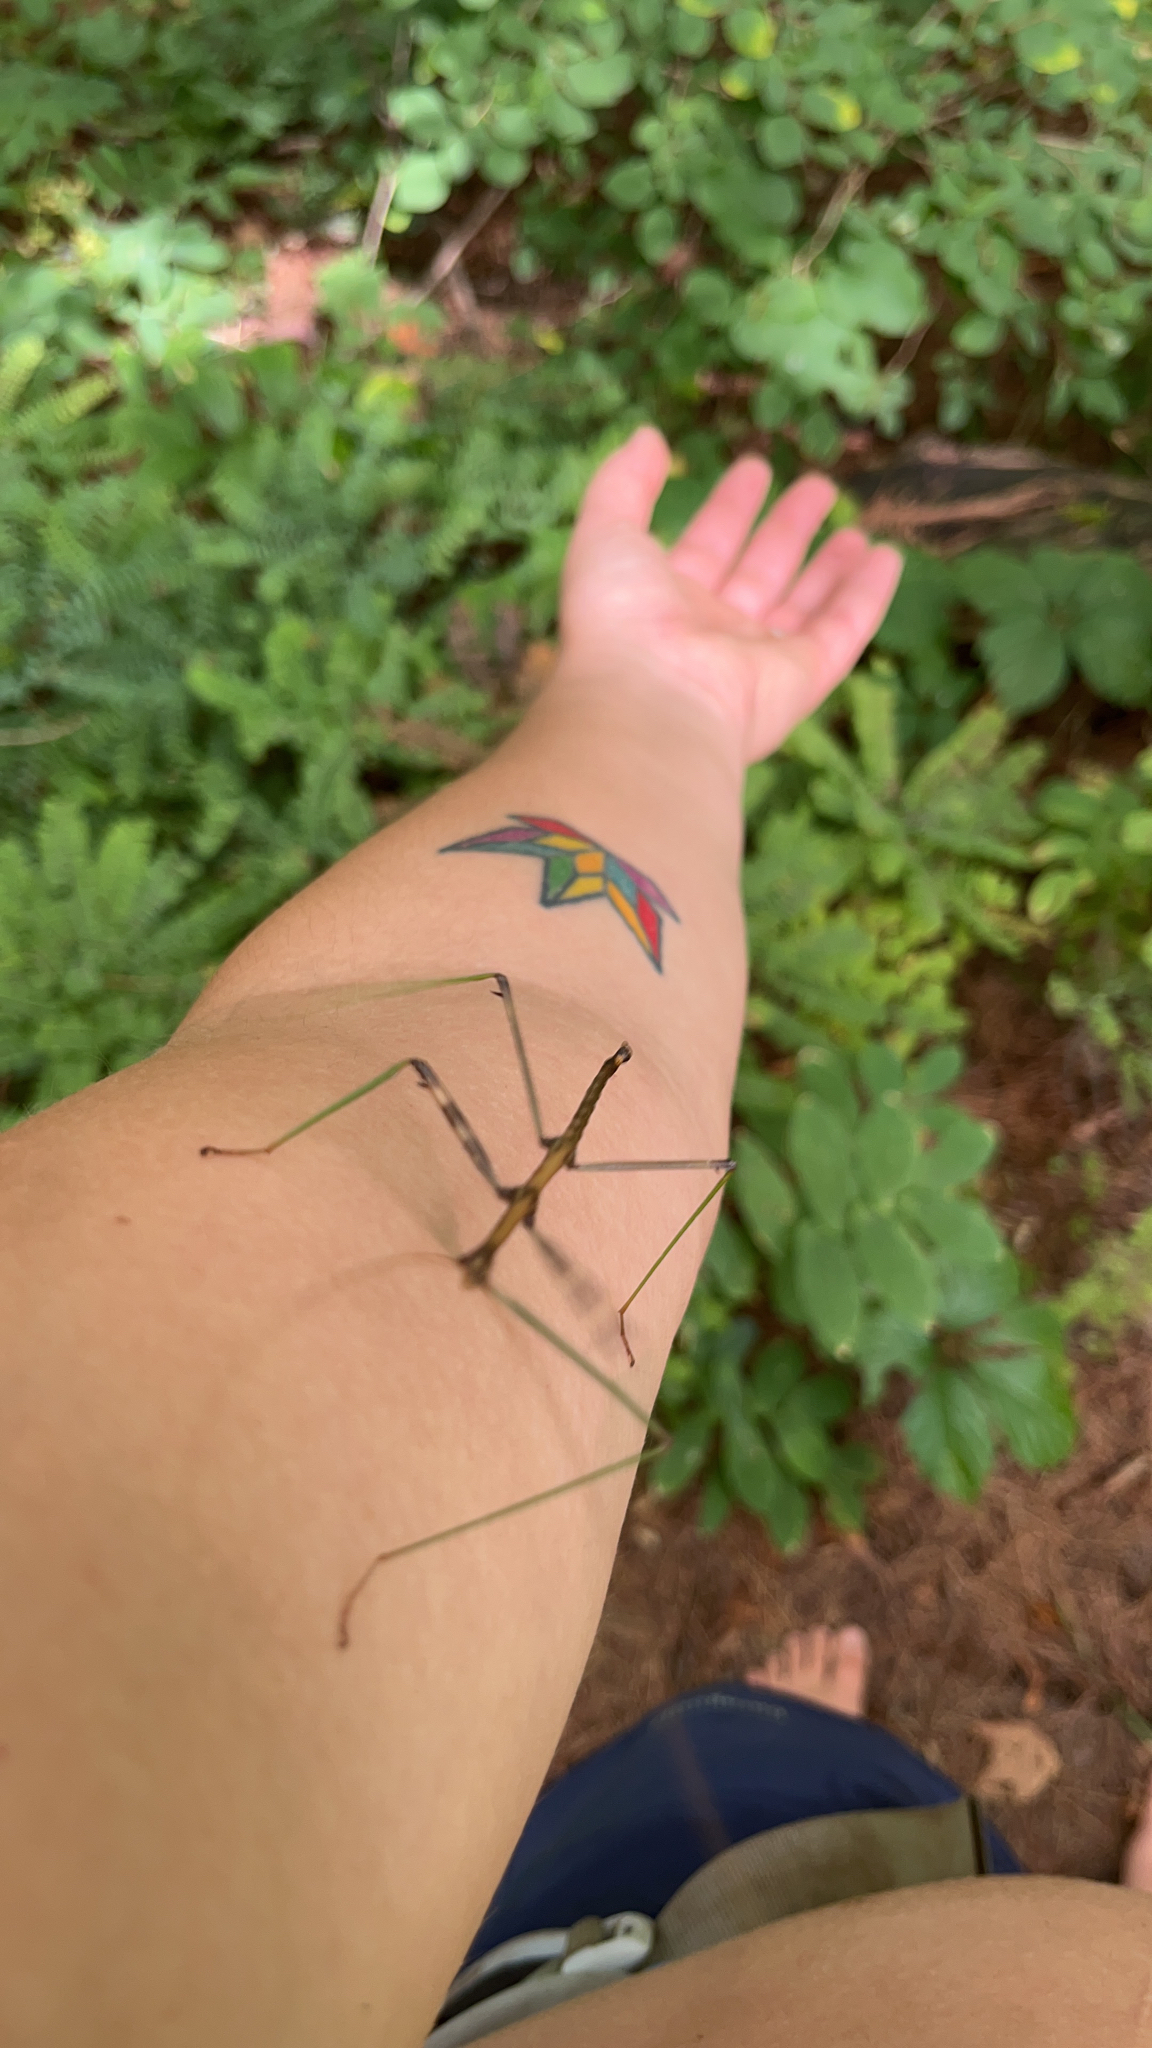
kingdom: Animalia
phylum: Arthropoda
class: Insecta
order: Phasmida
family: Diapheromeridae
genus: Diapheromera
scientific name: Diapheromera femorata
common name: Common american walkingstick
